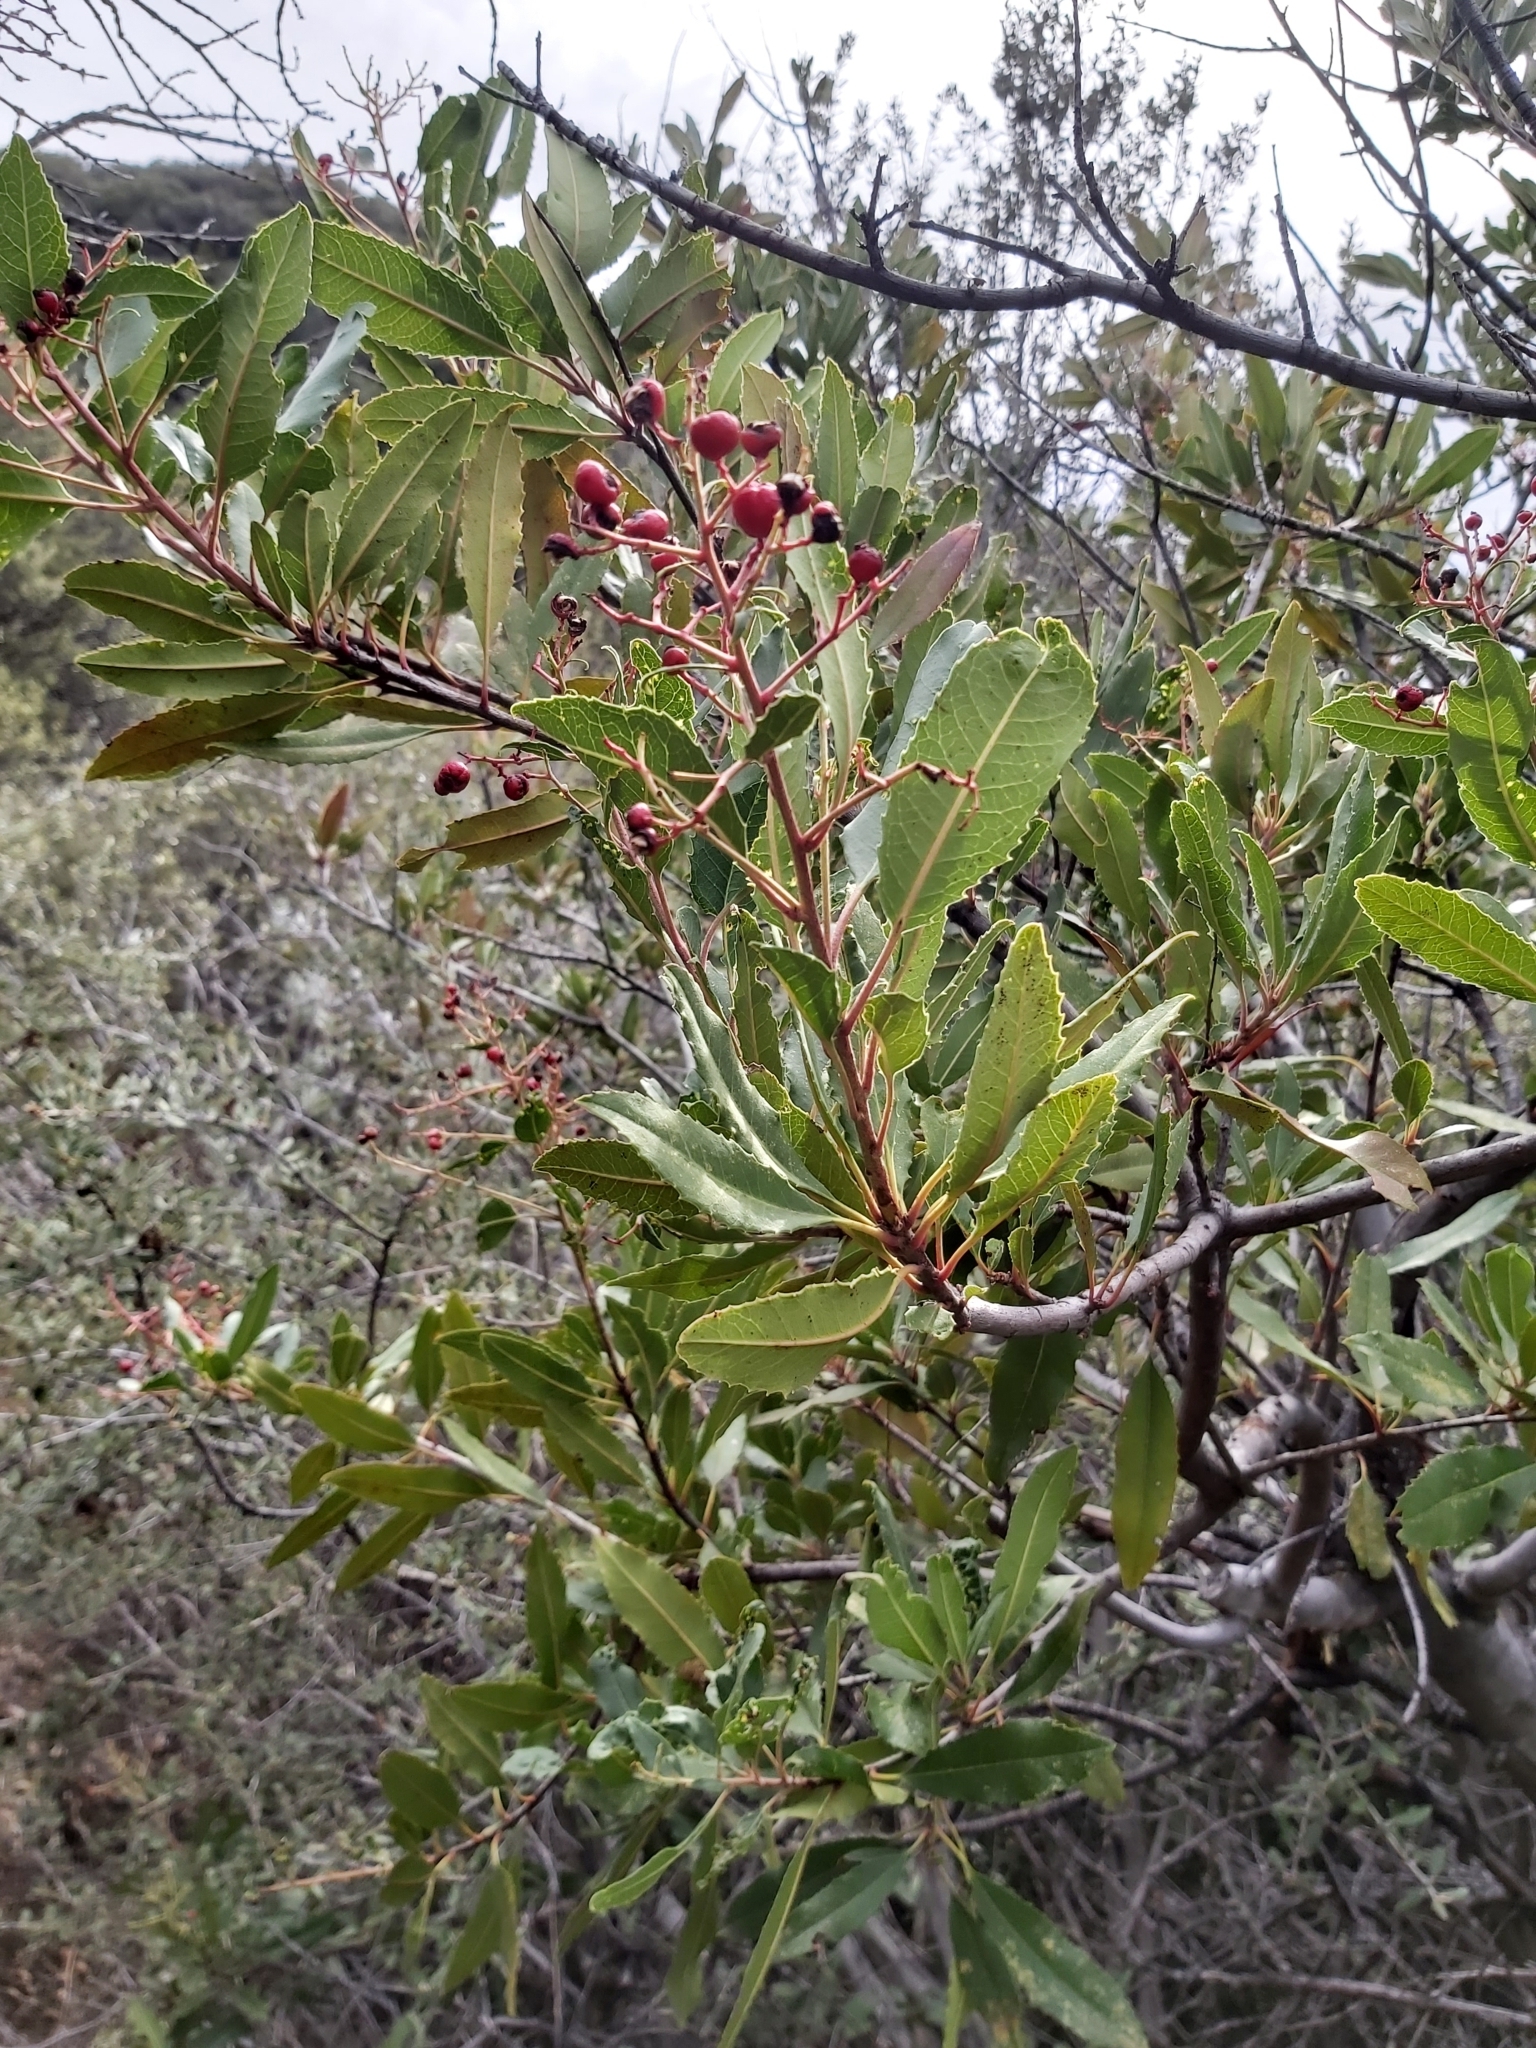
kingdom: Plantae
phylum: Tracheophyta
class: Magnoliopsida
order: Rosales
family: Rosaceae
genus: Heteromeles
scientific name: Heteromeles arbutifolia
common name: California-holly
